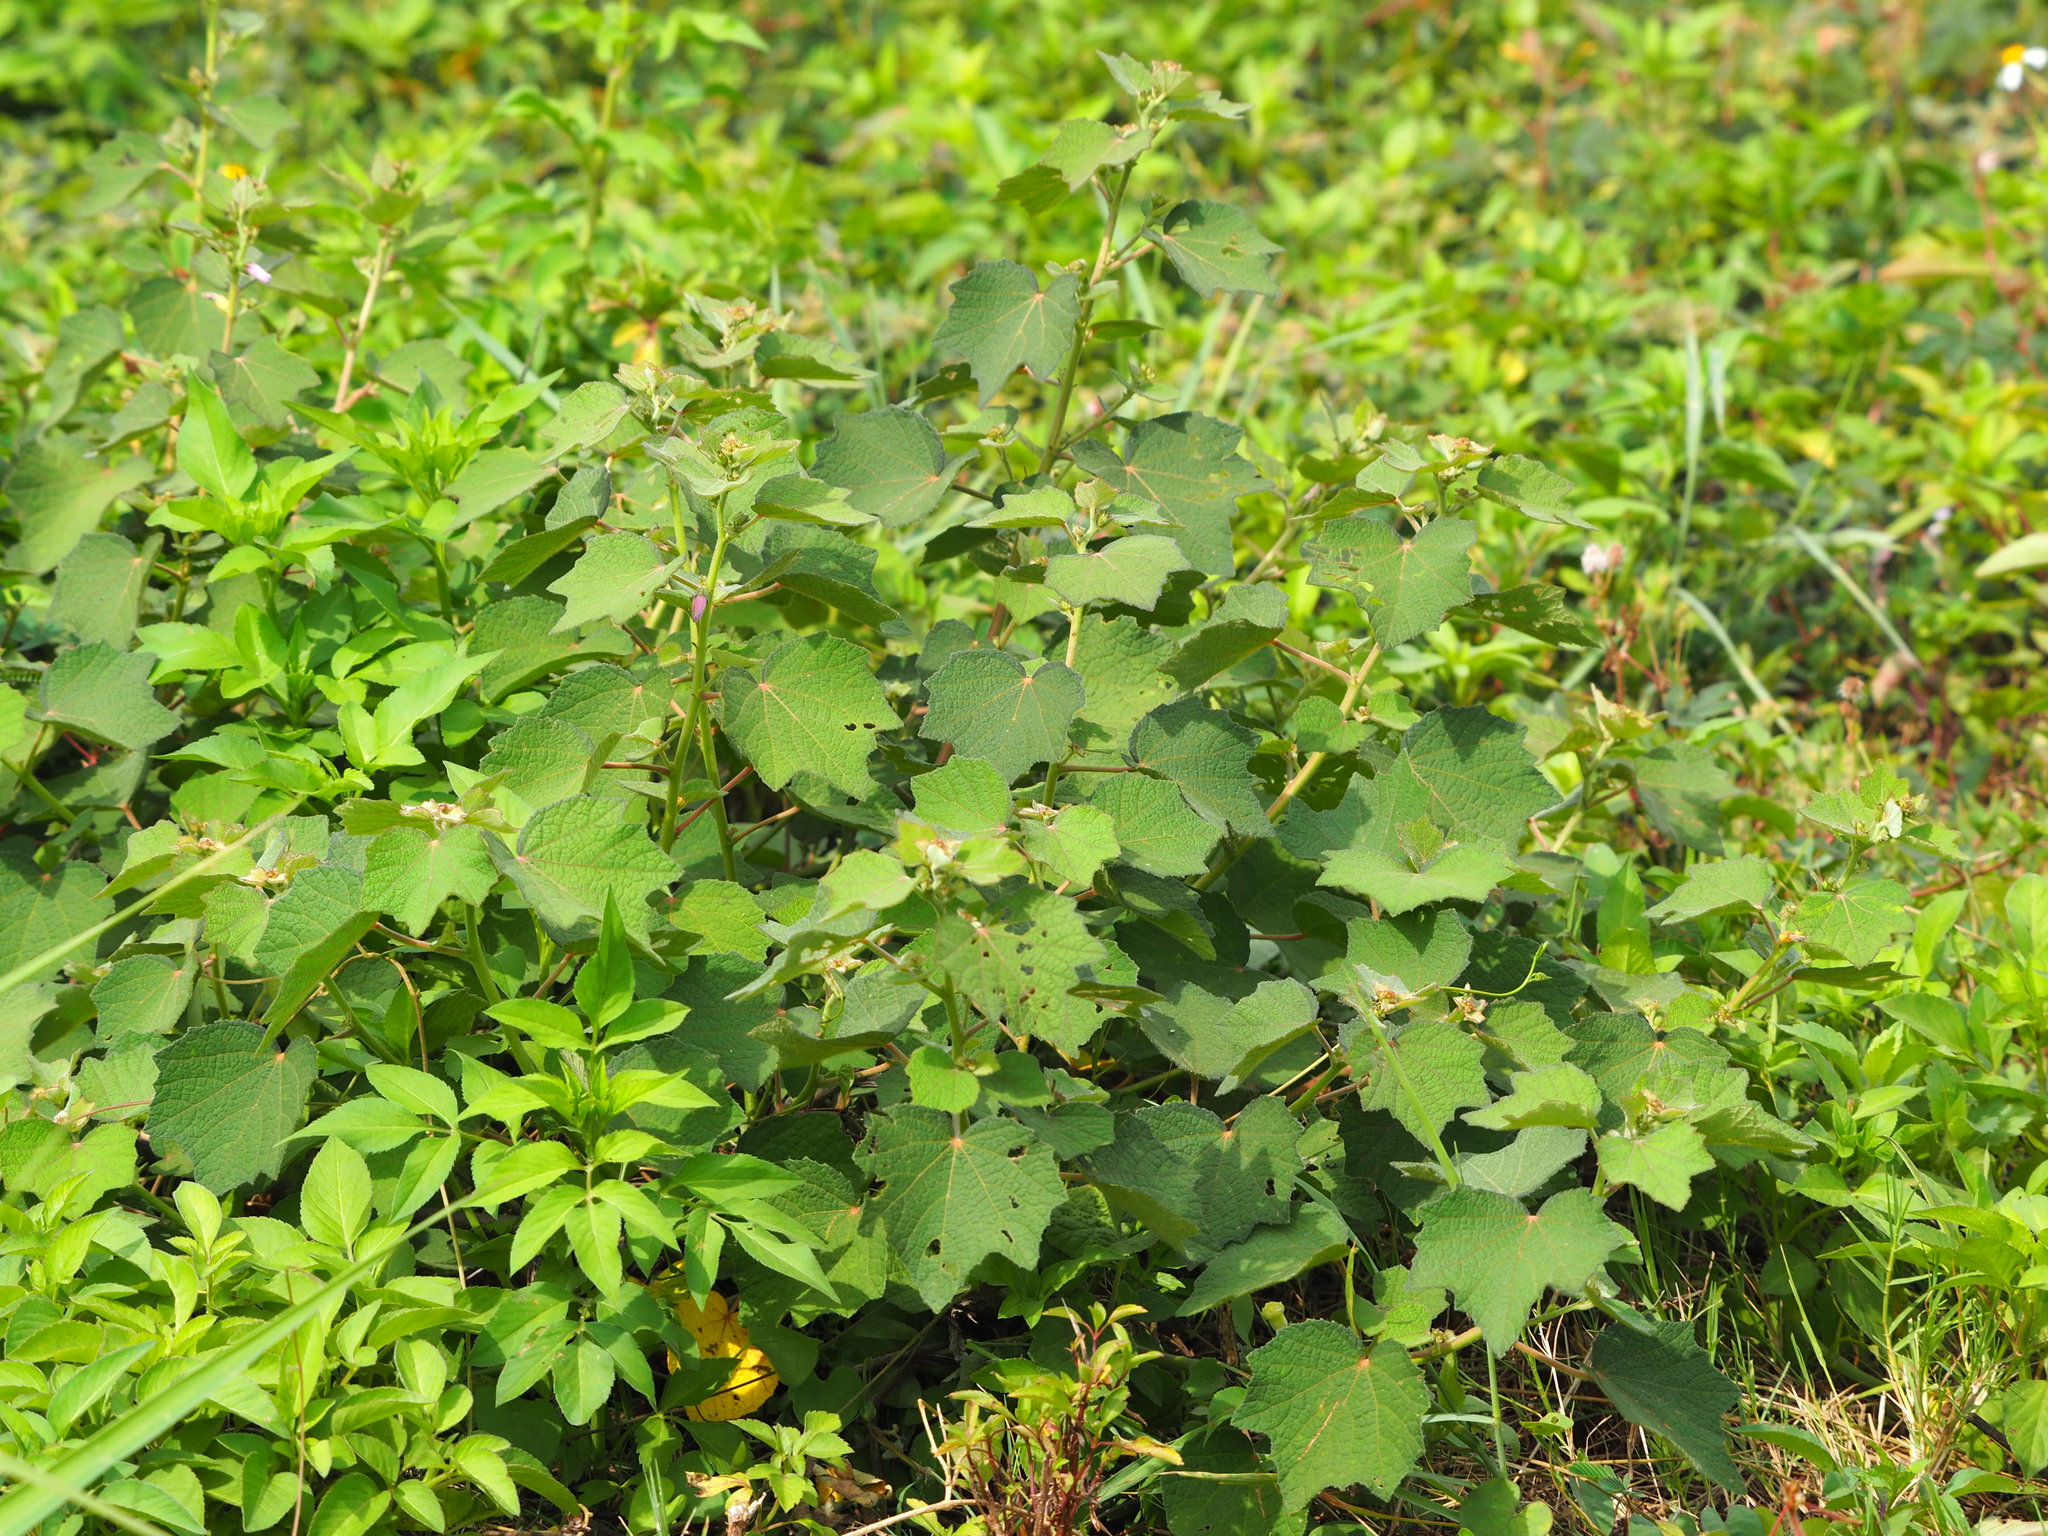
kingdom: Plantae
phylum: Tracheophyta
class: Magnoliopsida
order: Malvales
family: Malvaceae
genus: Urena
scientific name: Urena lobata
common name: Caesarweed
